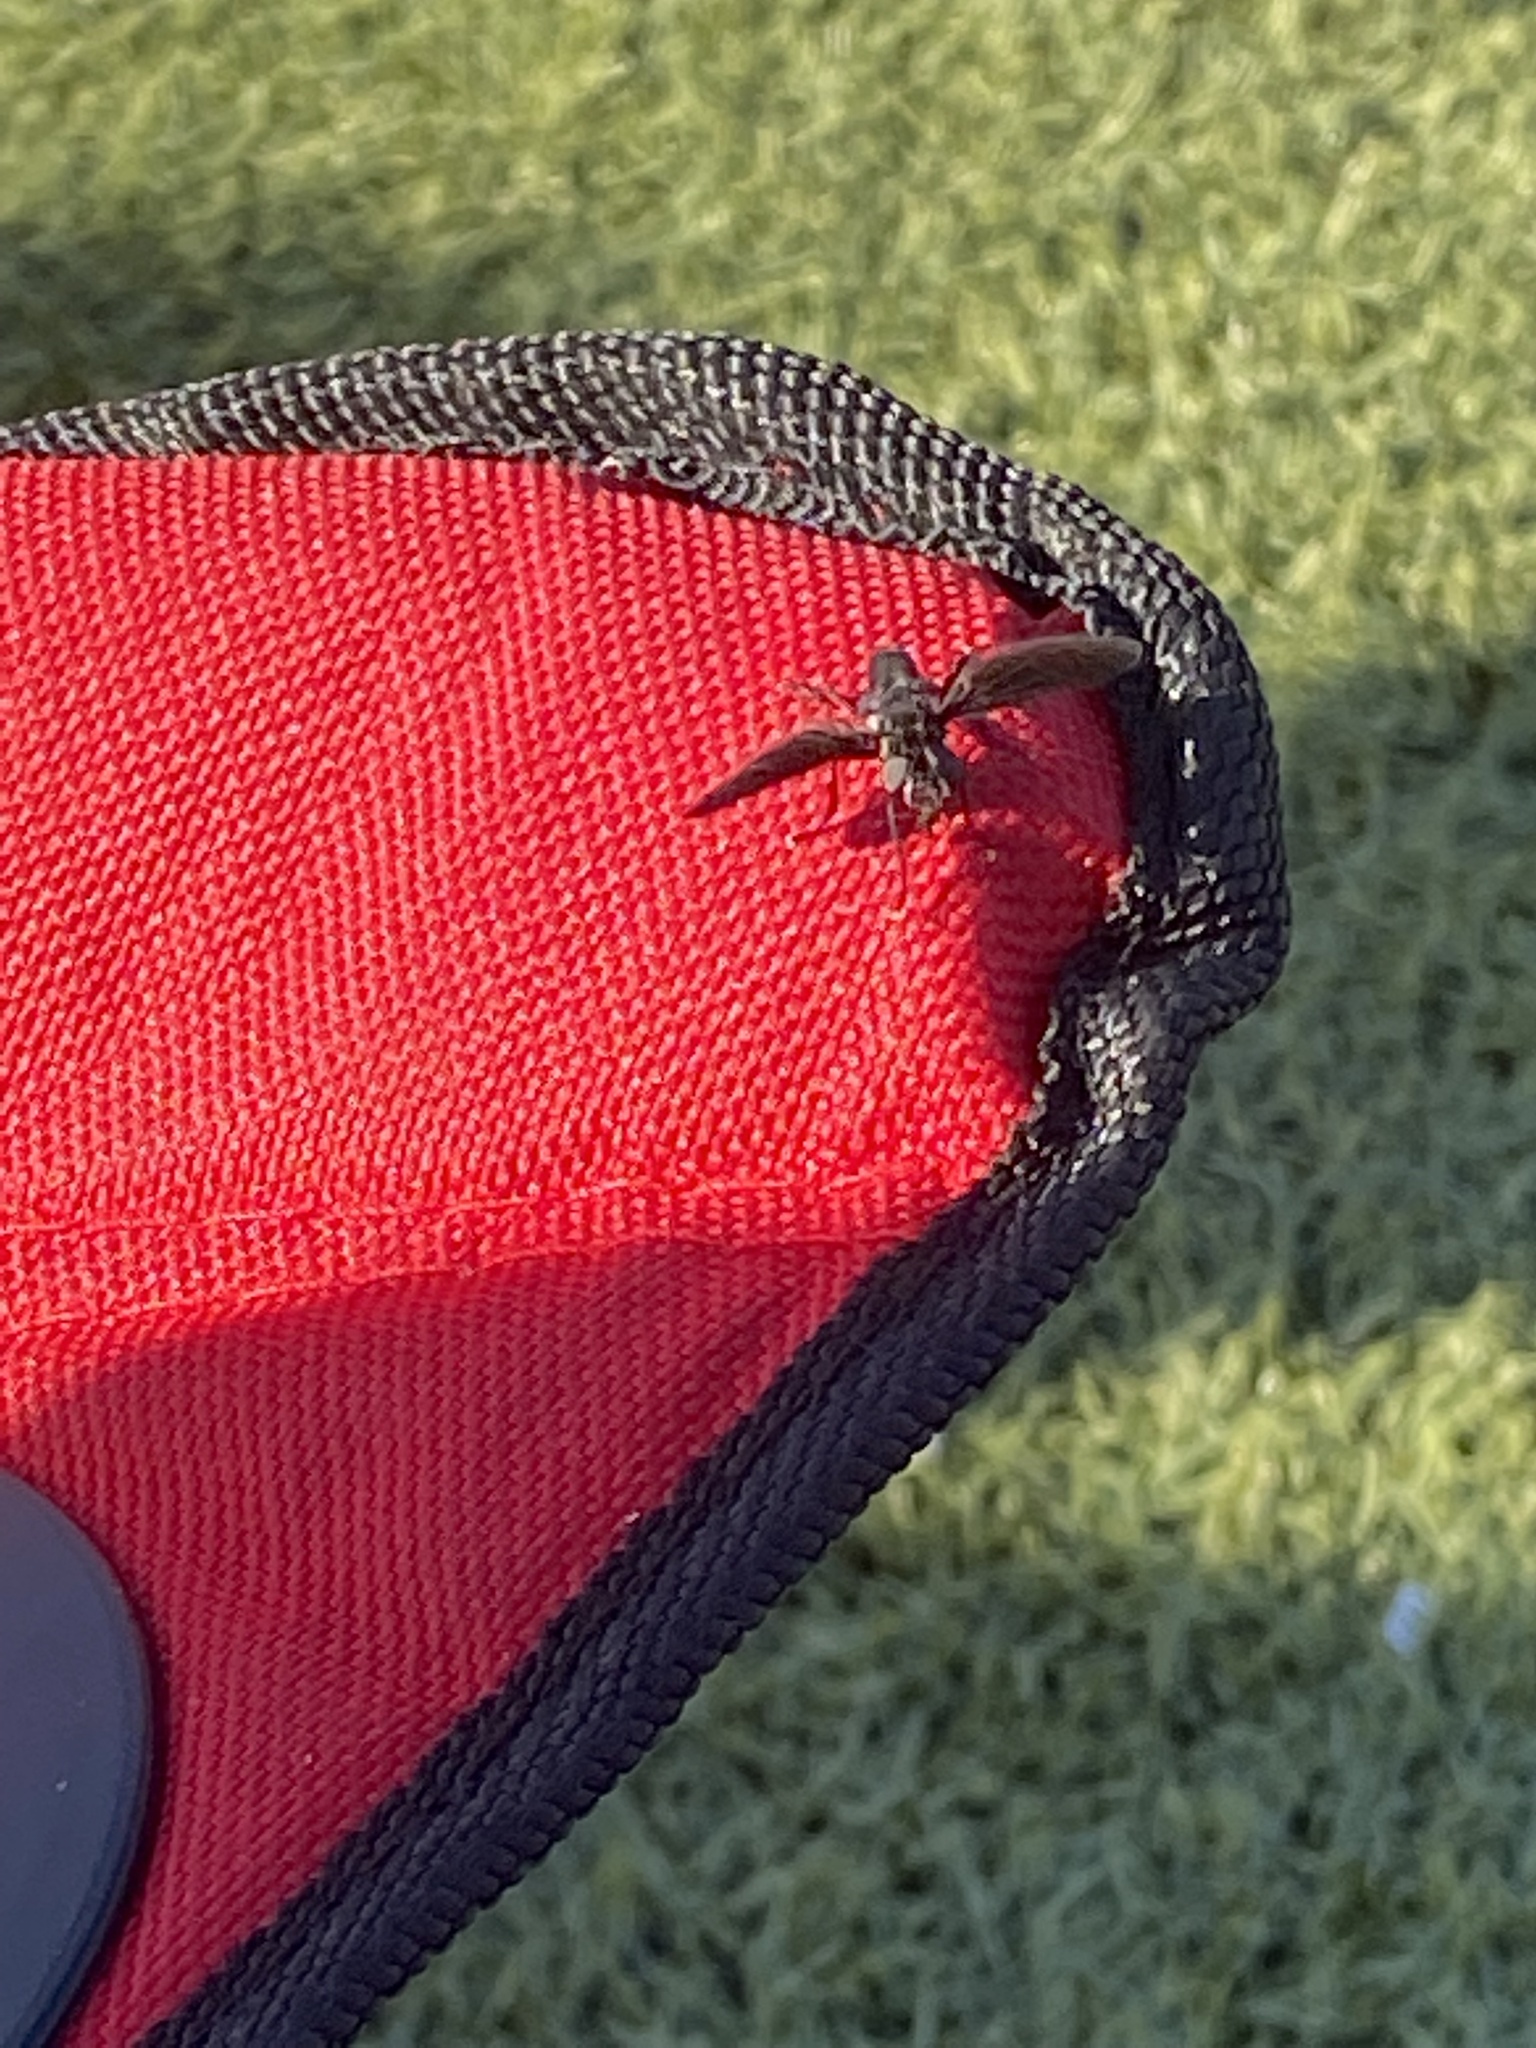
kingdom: Animalia
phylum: Arthropoda
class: Insecta
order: Diptera
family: Tachinidae
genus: Trichopoda
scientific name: Trichopoda lanipes
